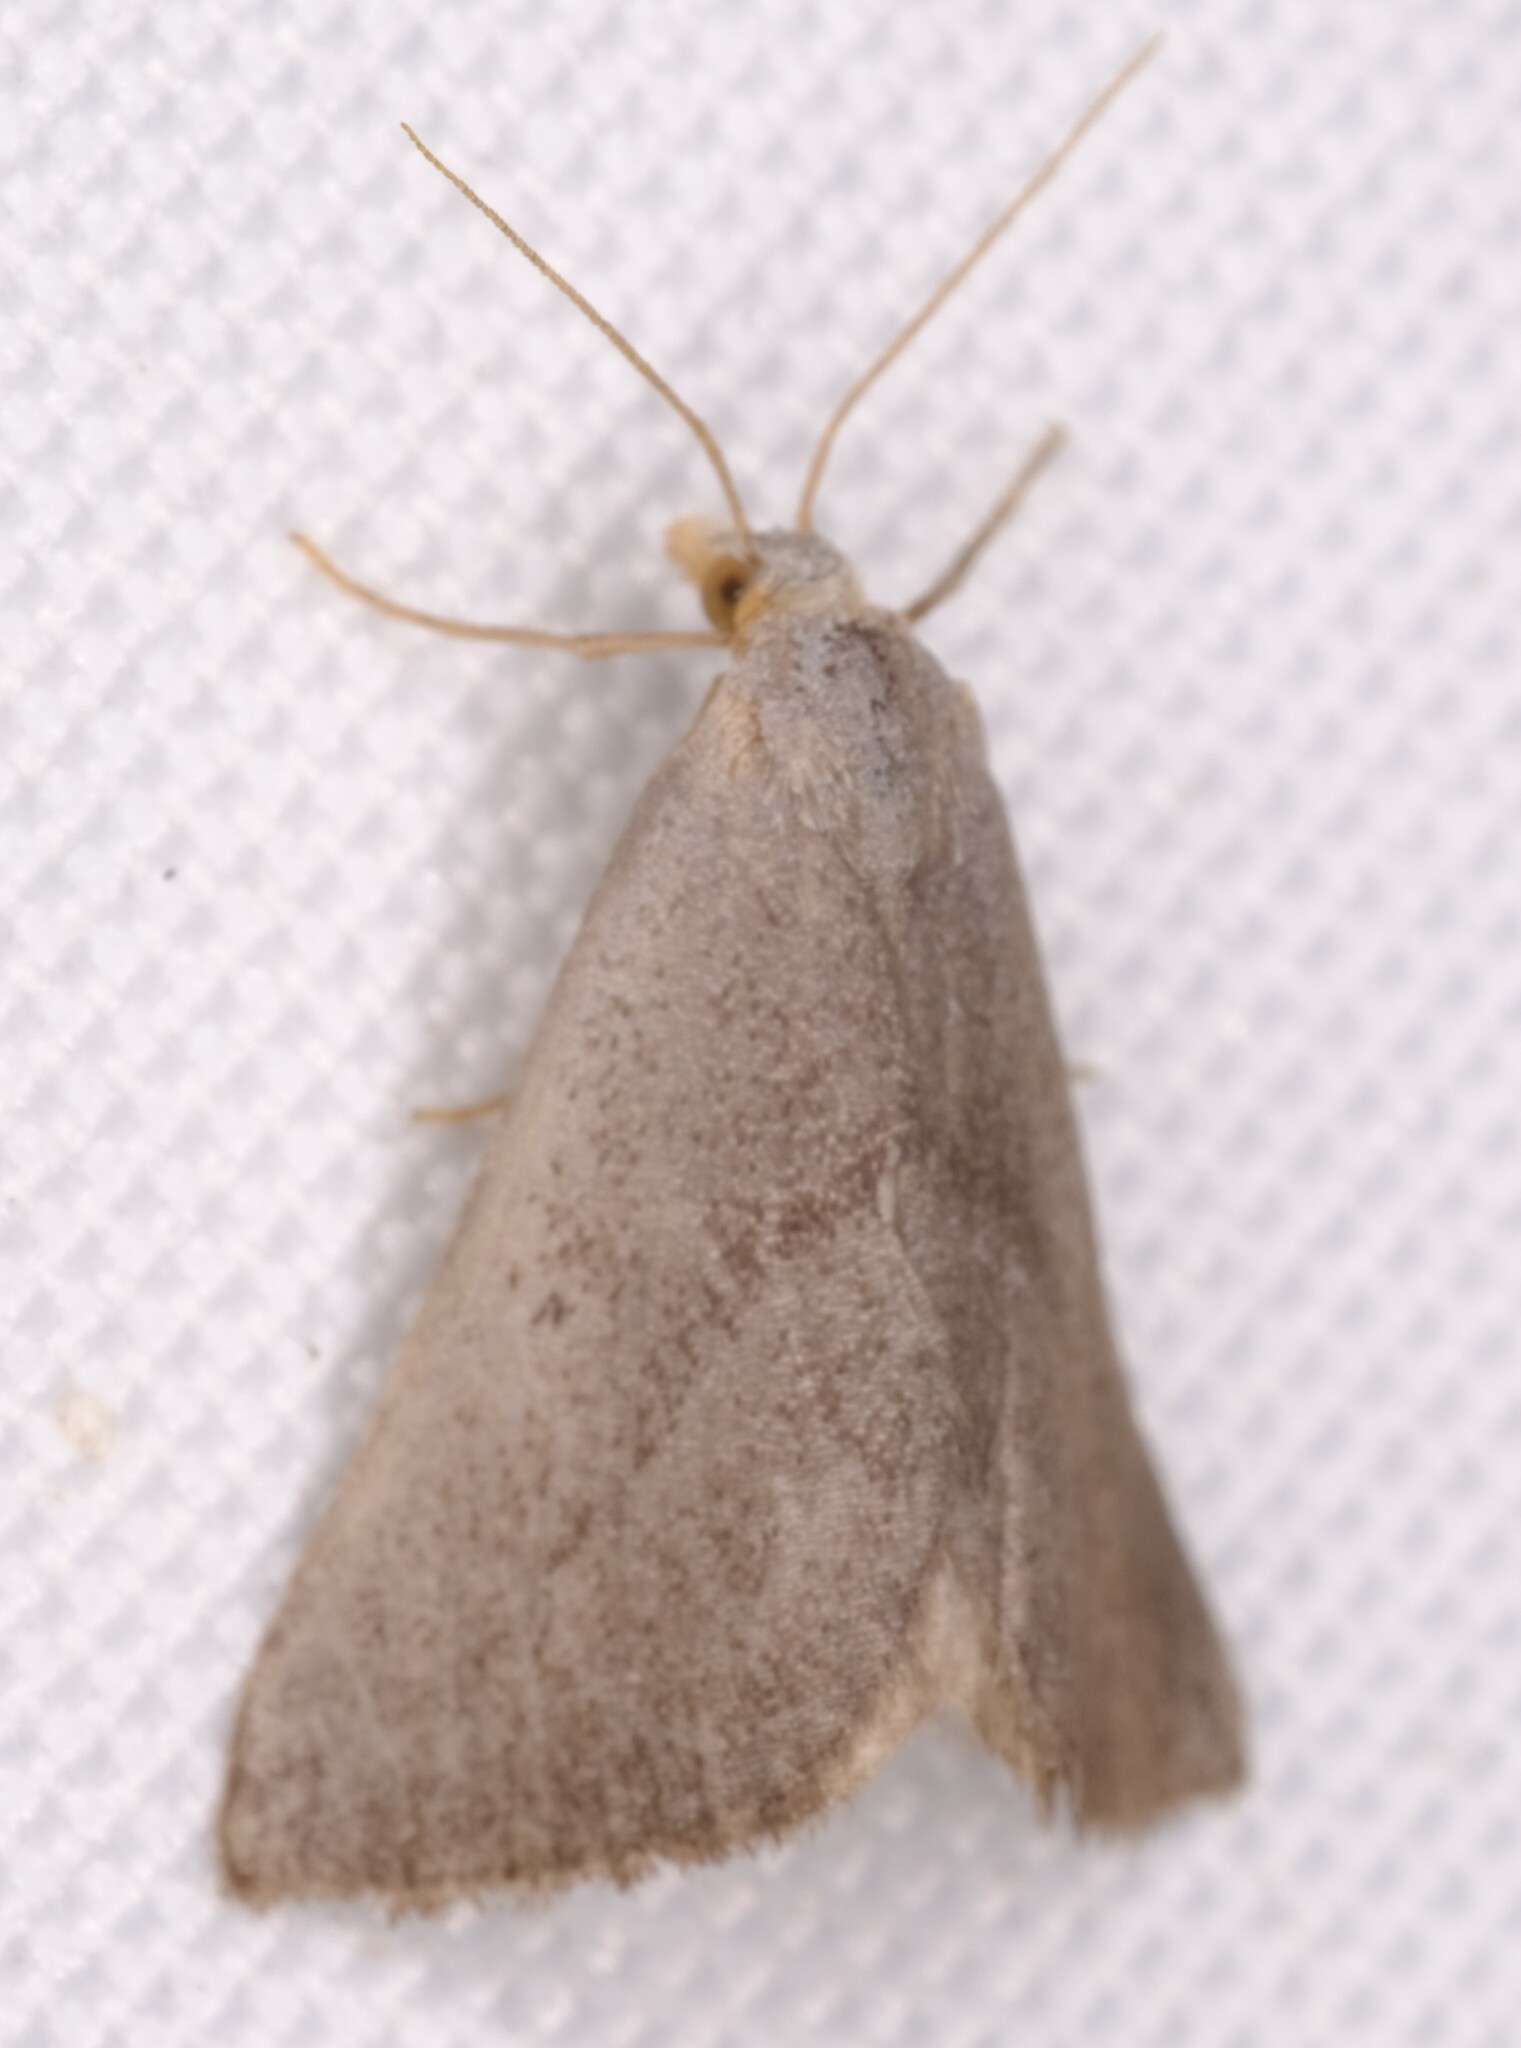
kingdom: Animalia
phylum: Arthropoda
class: Insecta
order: Lepidoptera
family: Geometridae
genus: Adeixis
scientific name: Adeixis inostentata
